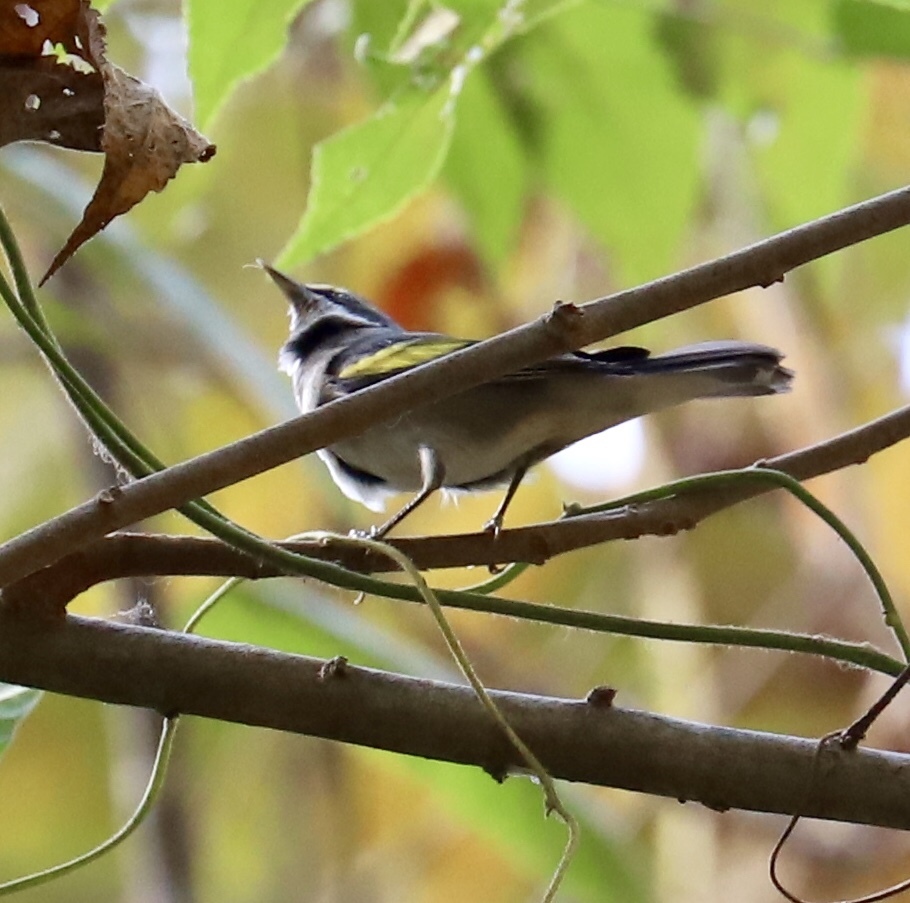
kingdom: Animalia
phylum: Chordata
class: Aves
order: Passeriformes
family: Parulidae
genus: Vermivora
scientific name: Vermivora chrysoptera
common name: Golden-winged warbler
